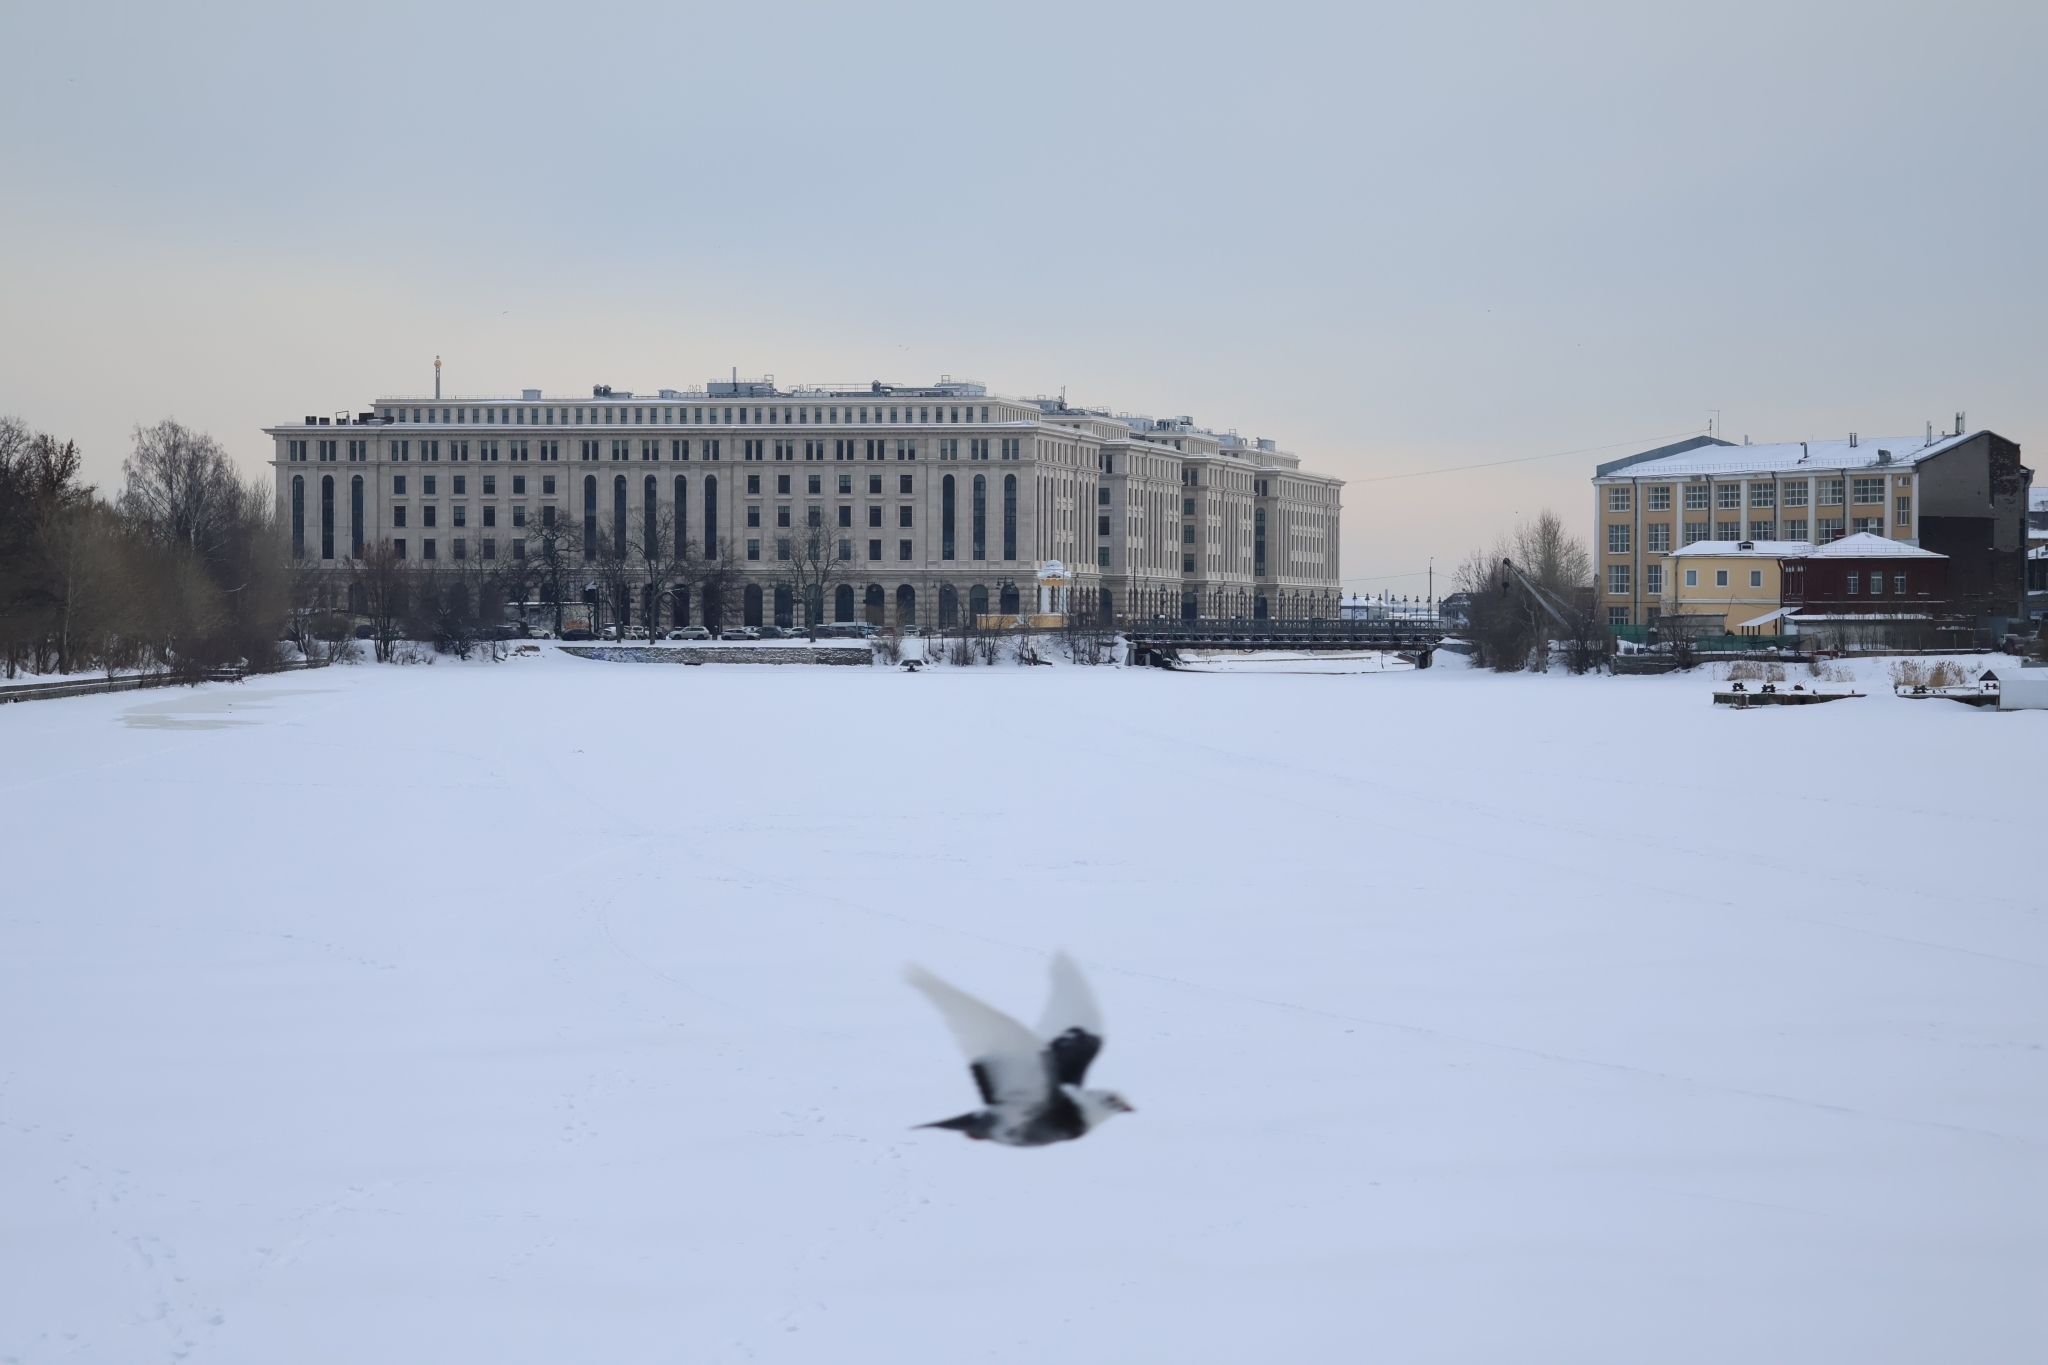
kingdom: Animalia
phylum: Chordata
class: Aves
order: Columbiformes
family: Columbidae
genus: Columba
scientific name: Columba livia
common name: Rock pigeon
